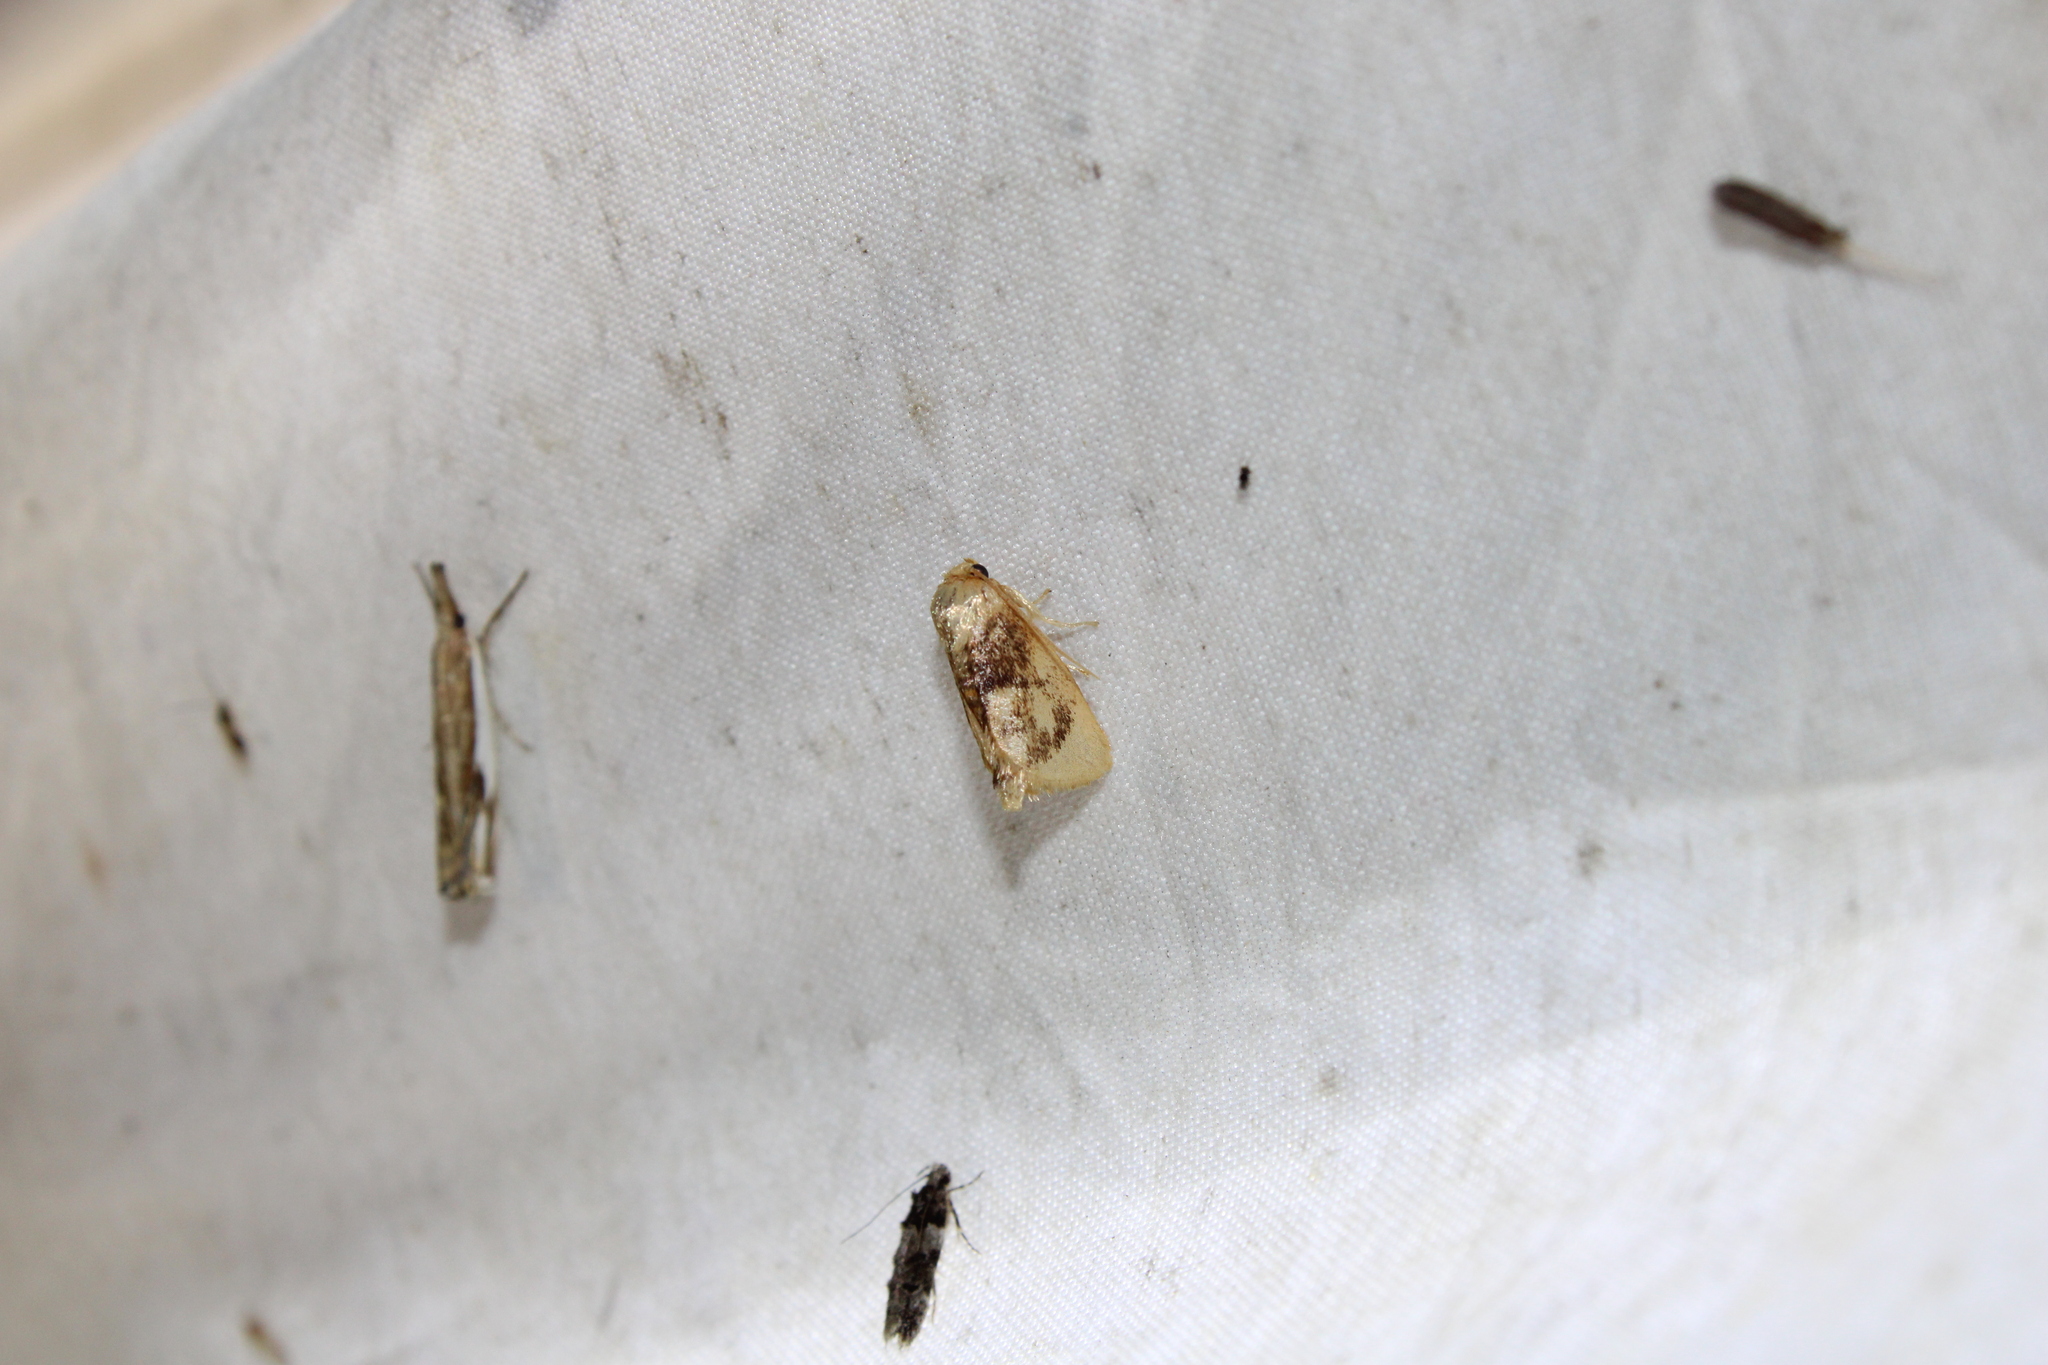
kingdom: Animalia
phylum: Arthropoda
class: Insecta
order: Lepidoptera
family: Limacodidae
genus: Tortricidia
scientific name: Tortricidia flexuosa
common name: Abbreviated button slug moth
